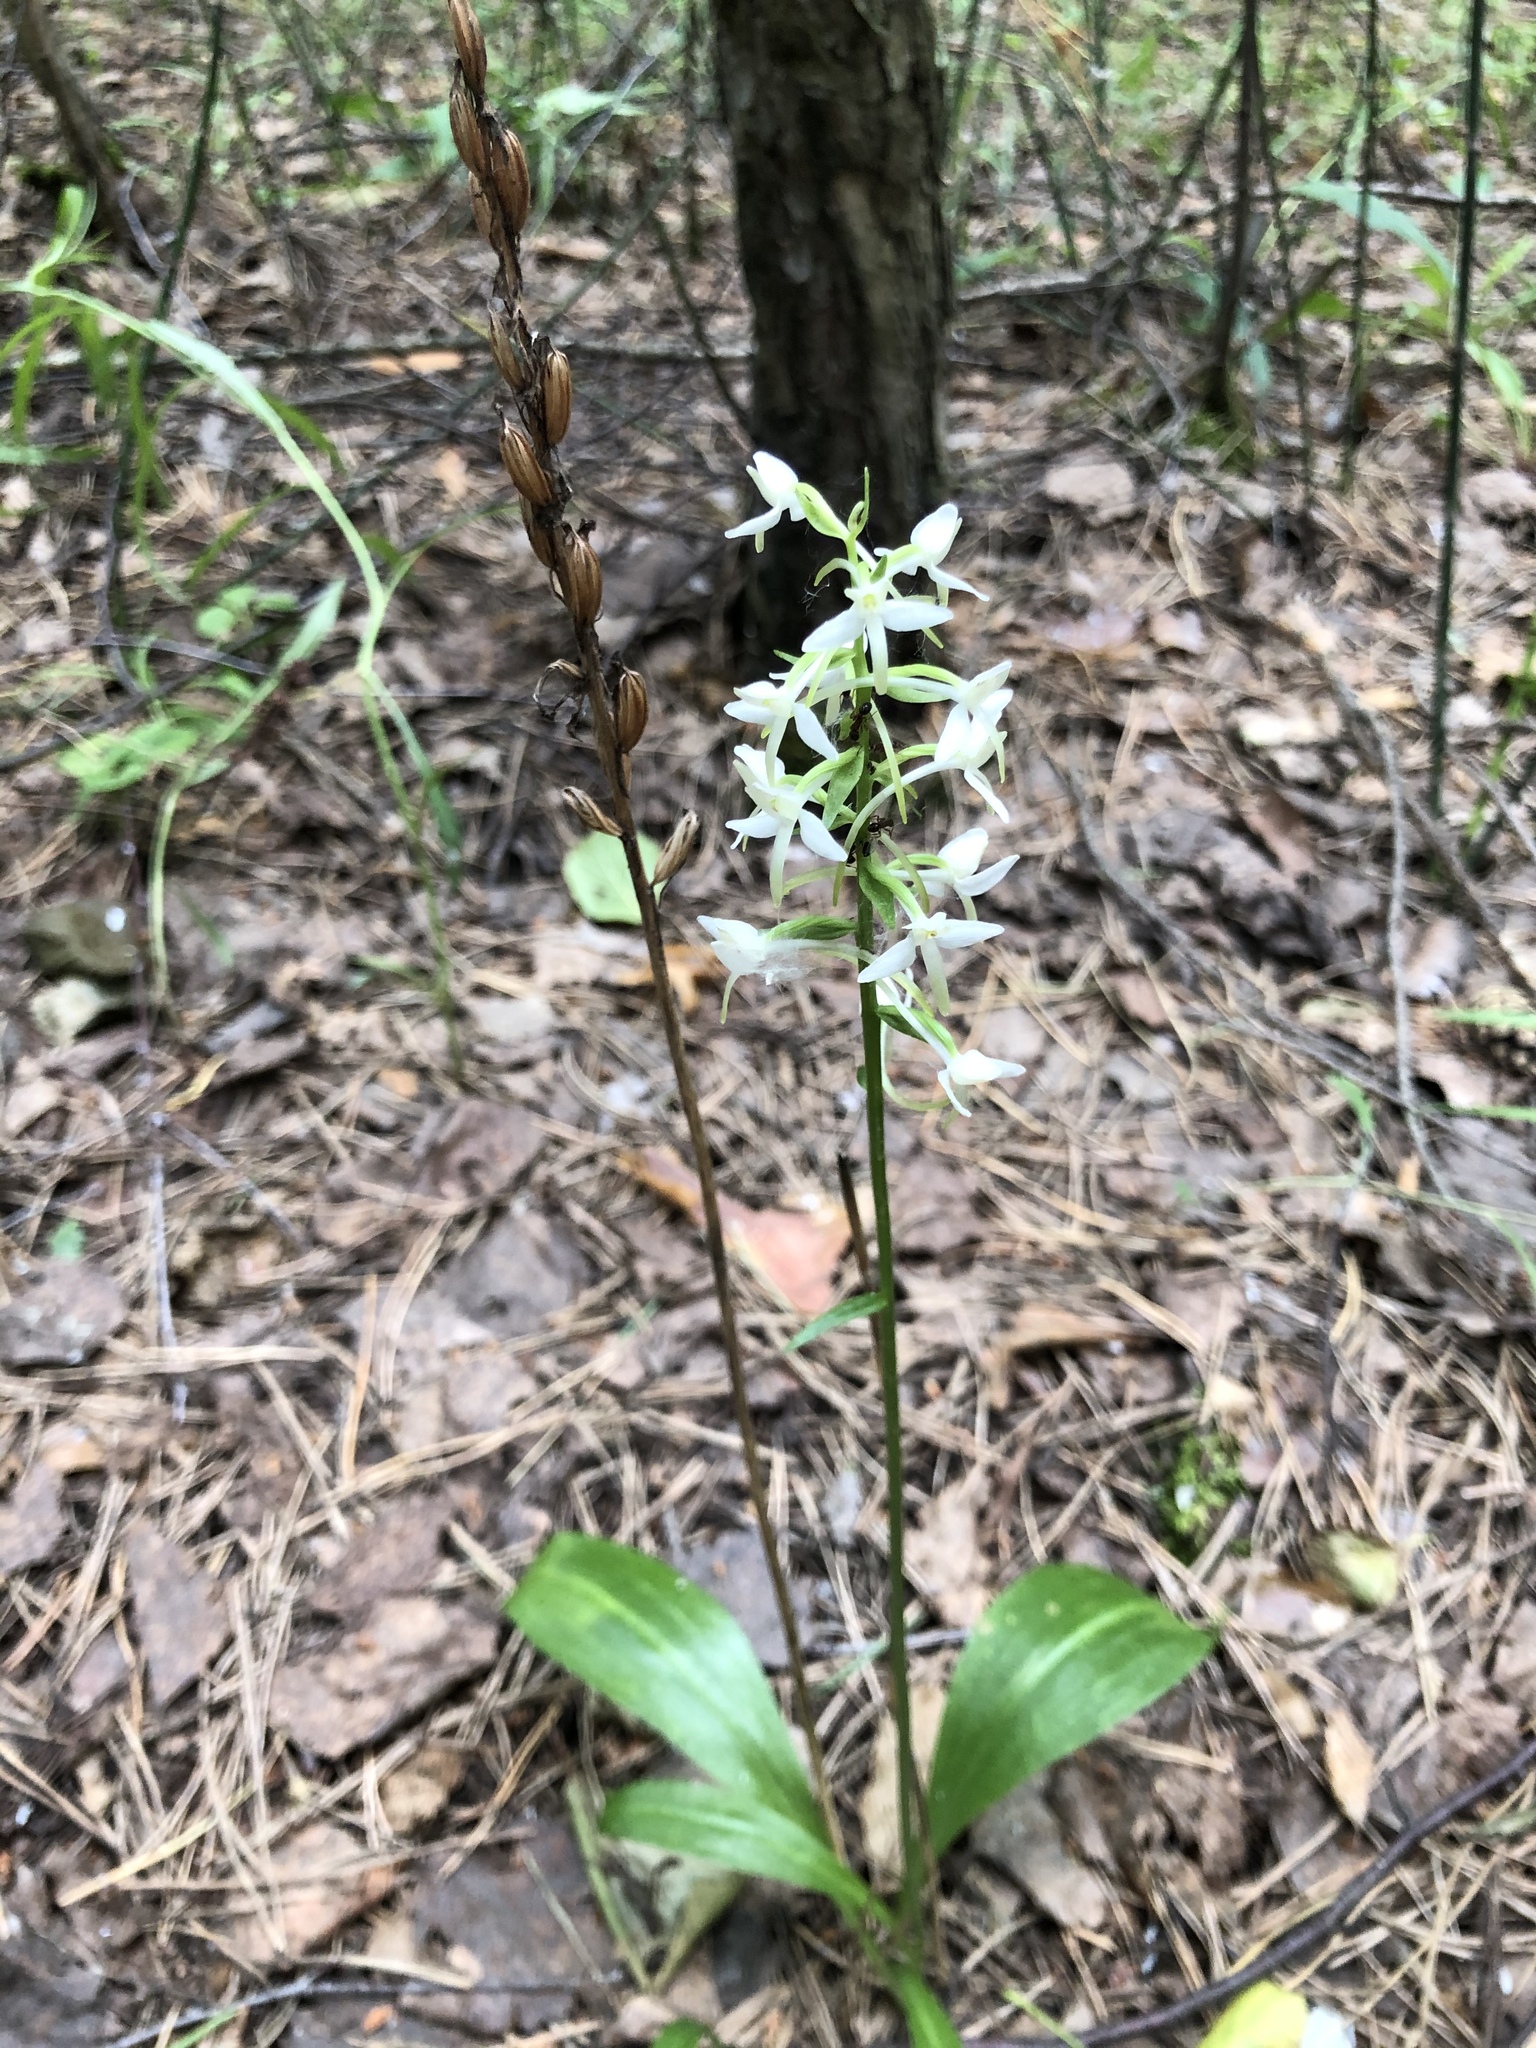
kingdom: Plantae
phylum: Tracheophyta
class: Liliopsida
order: Asparagales
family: Orchidaceae
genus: Platanthera
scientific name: Platanthera bifolia
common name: Lesser butterfly-orchid
